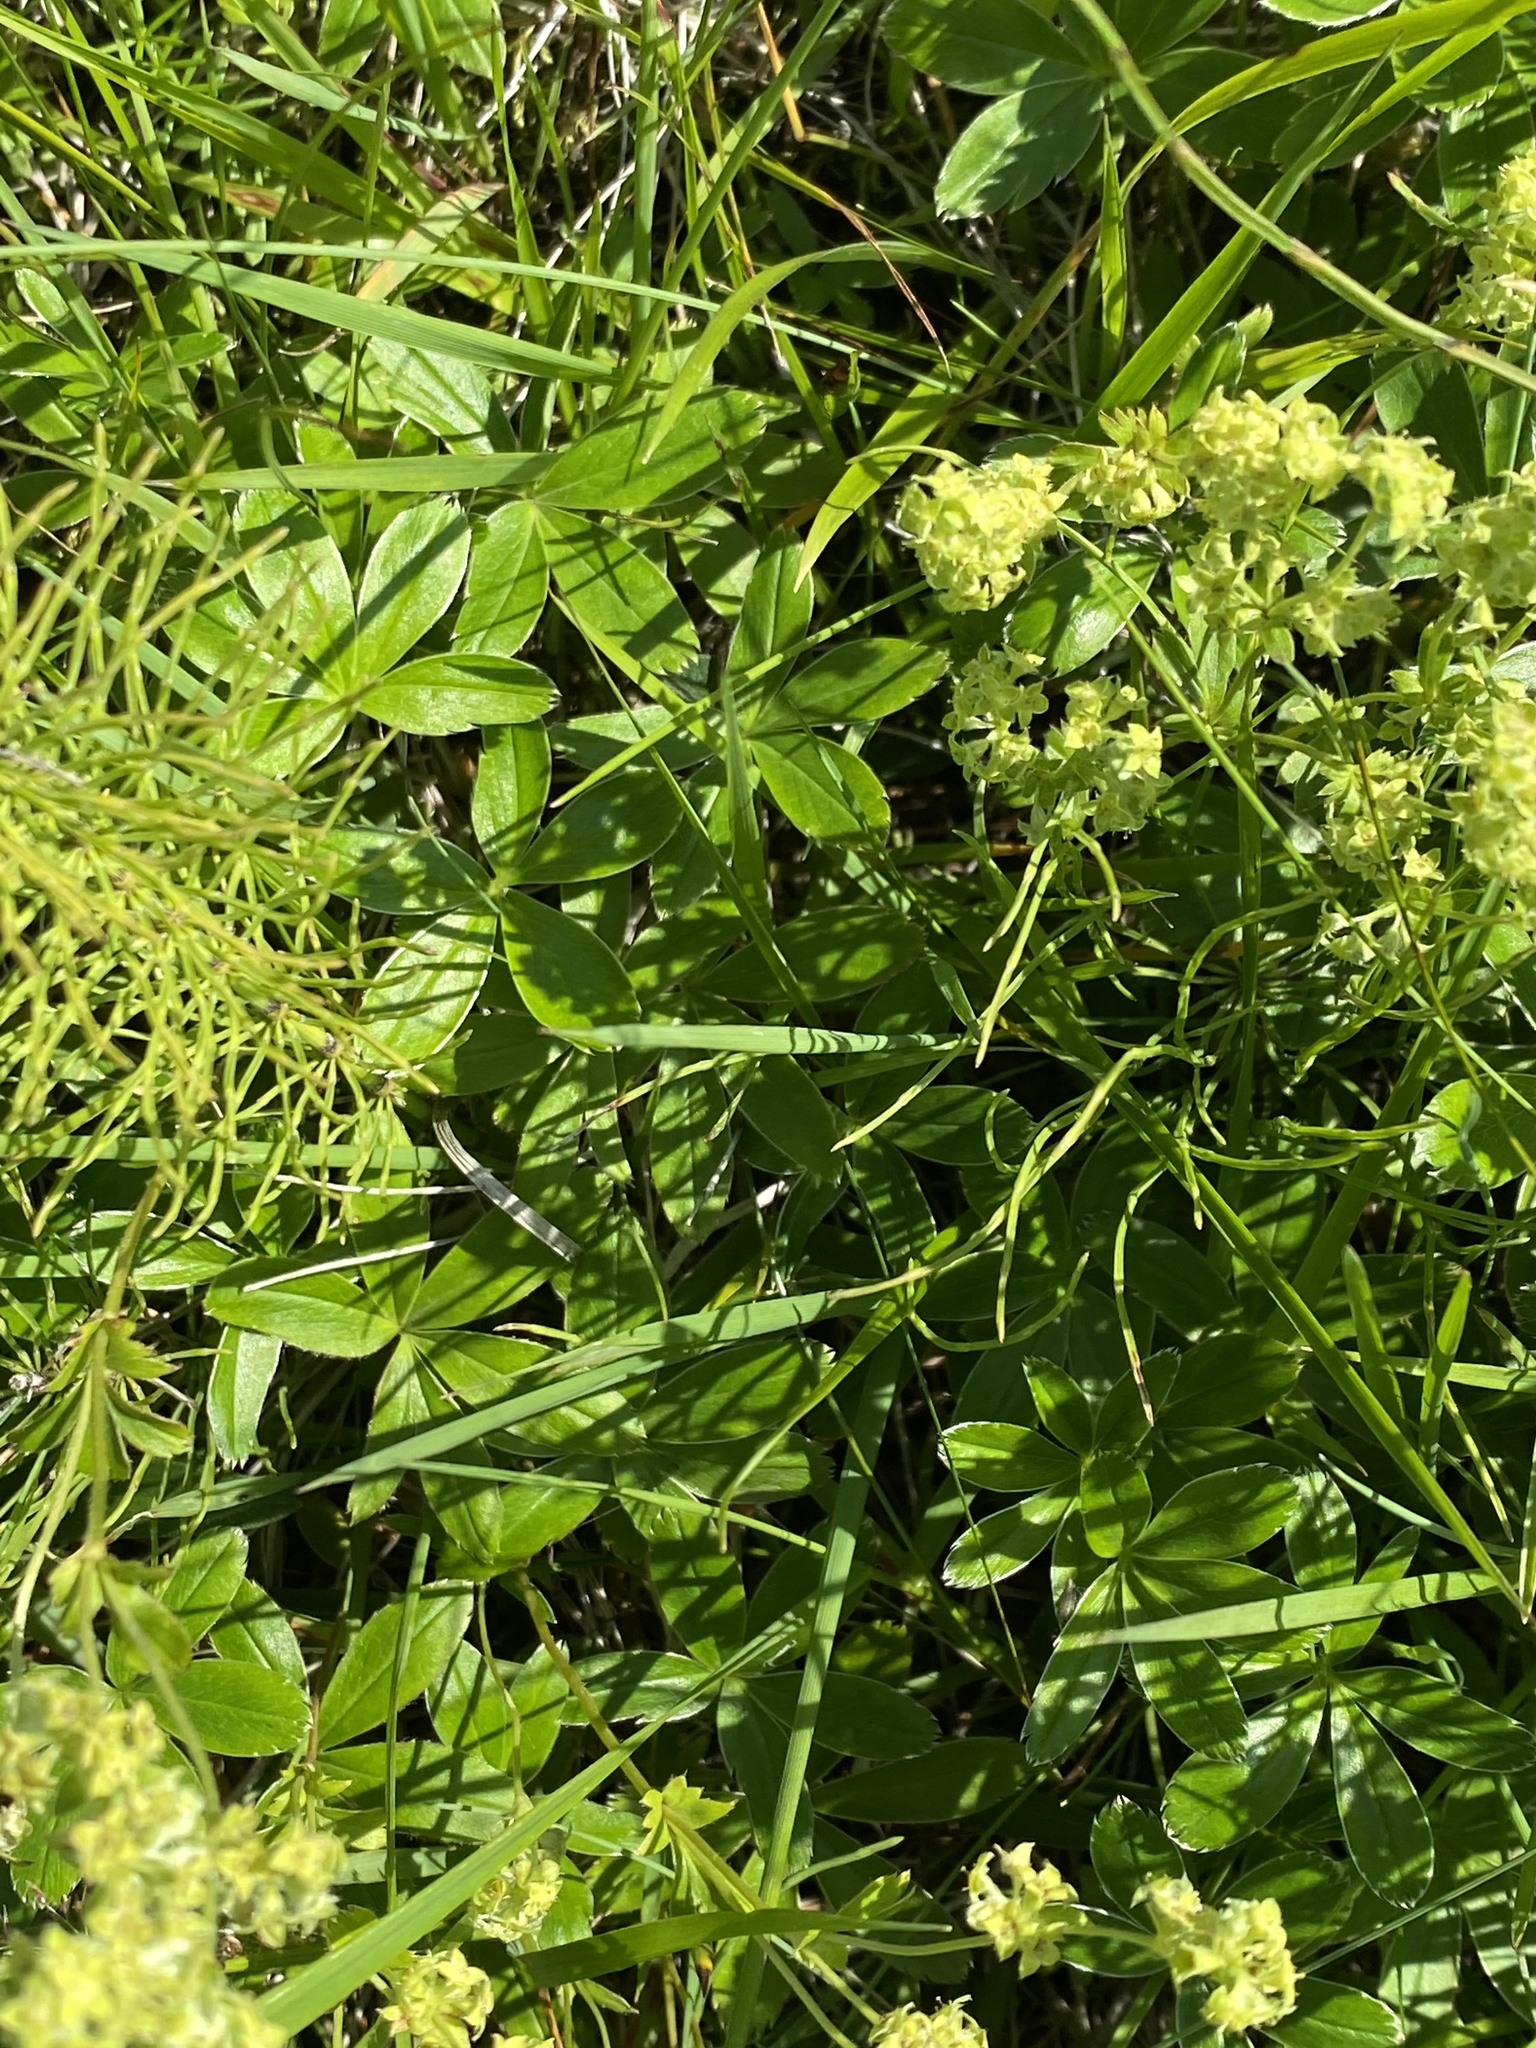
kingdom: Plantae
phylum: Tracheophyta
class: Magnoliopsida
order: Rosales
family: Rosaceae
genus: Alchemilla
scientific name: Alchemilla alpina
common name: Alpine lady's-mantle
